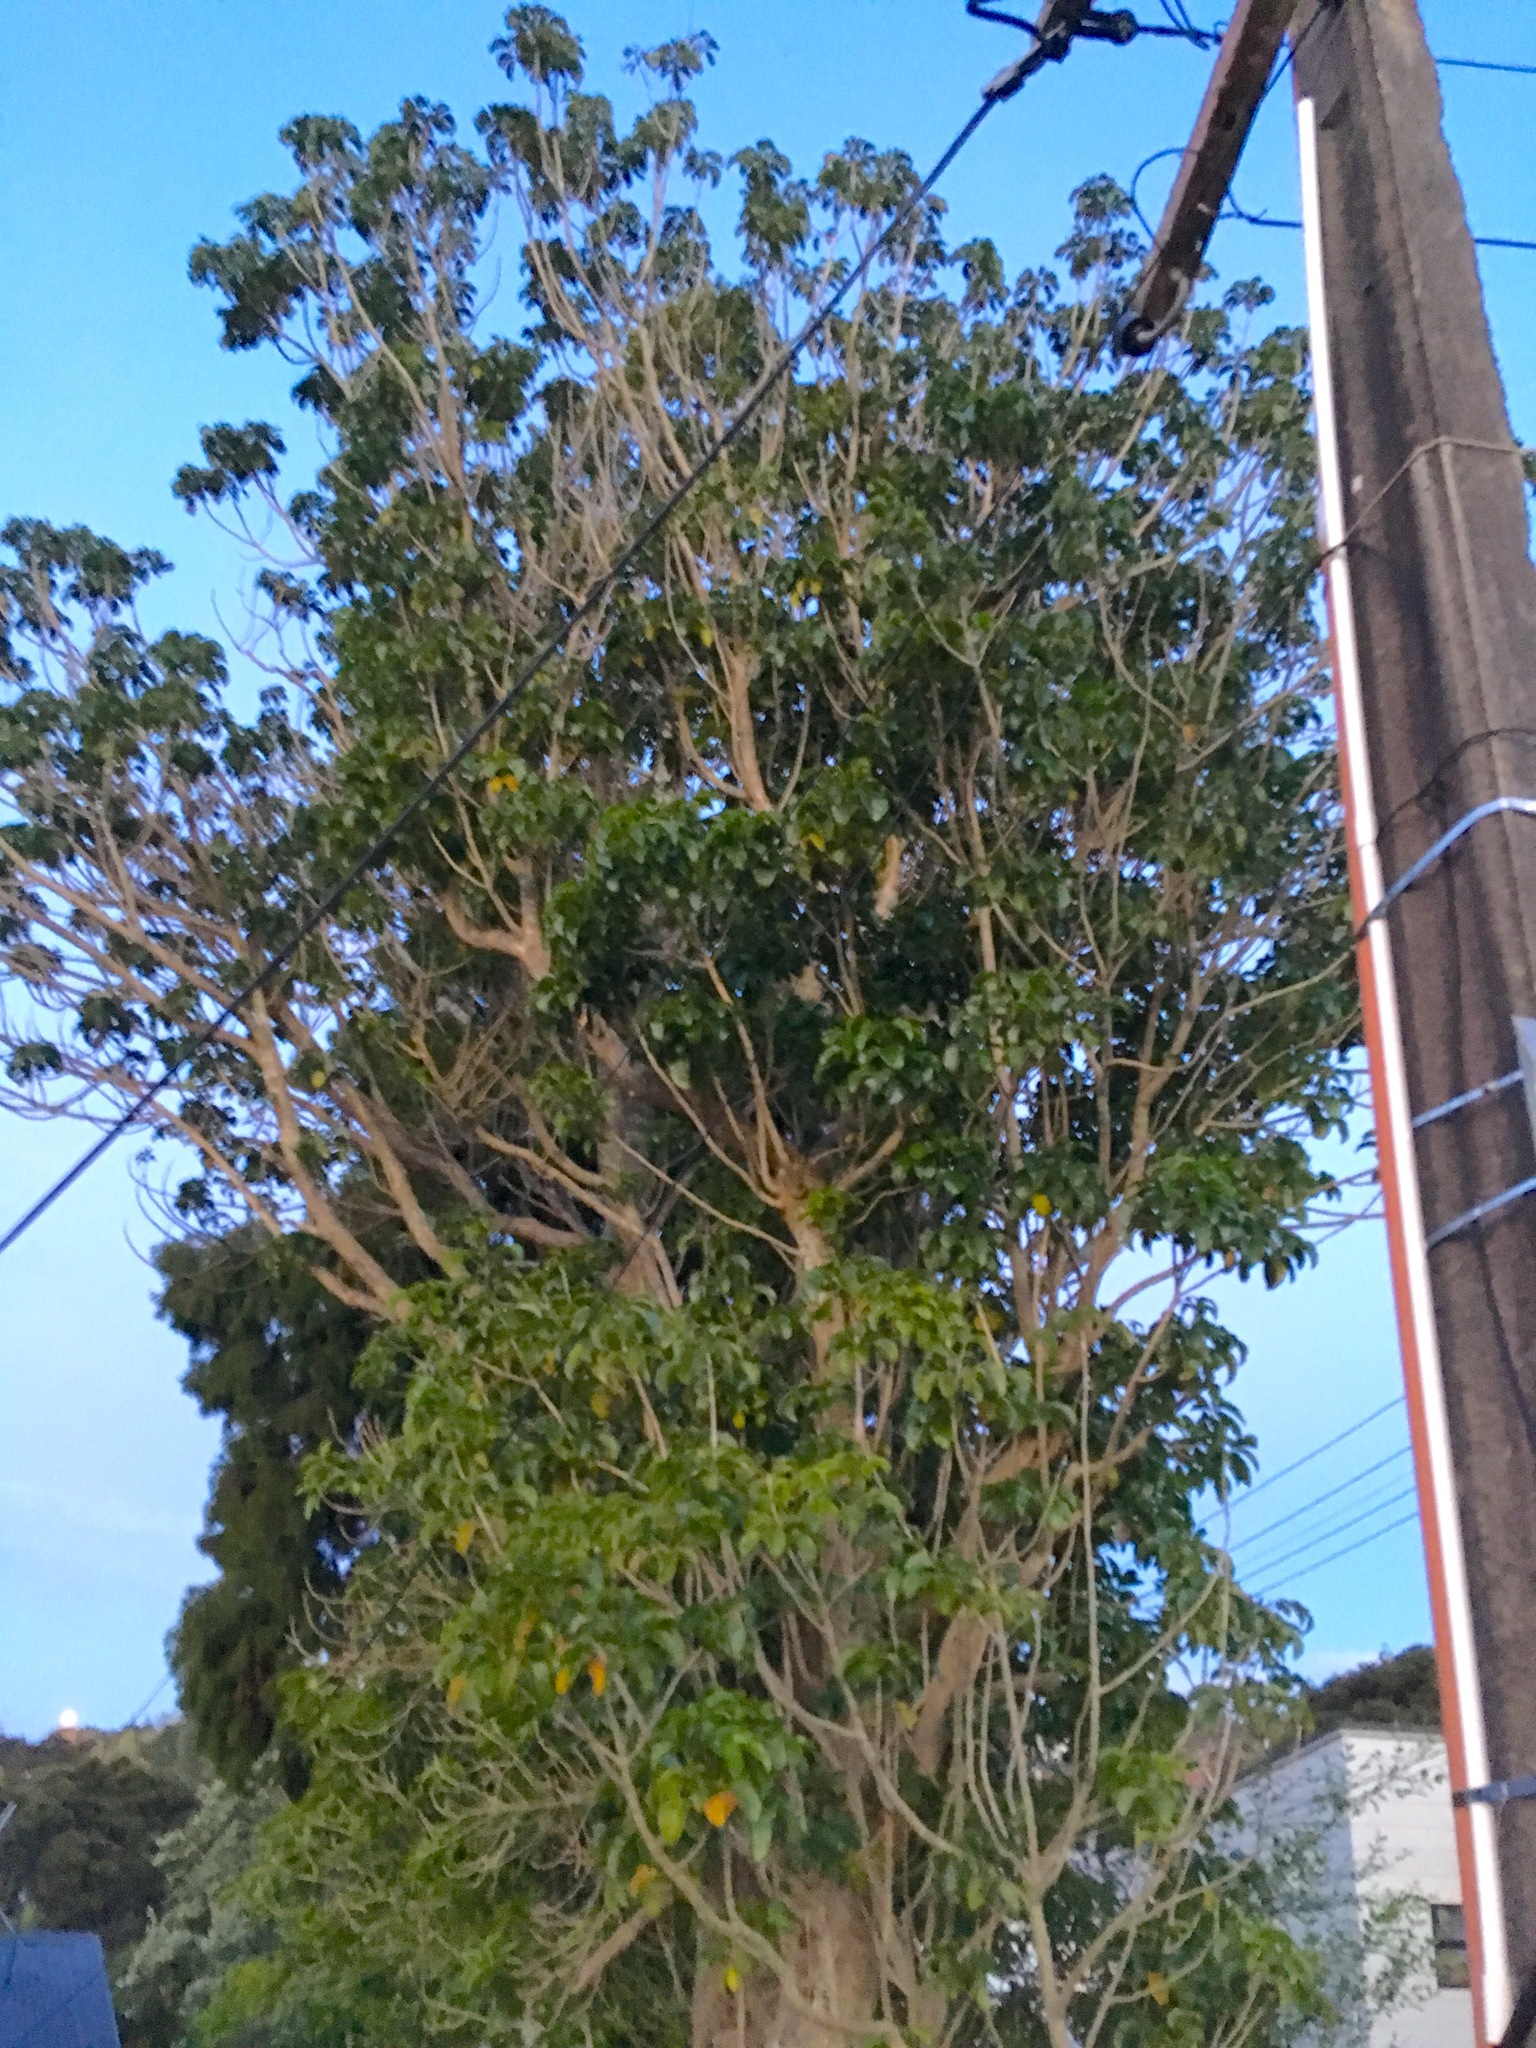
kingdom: Plantae
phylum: Tracheophyta
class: Magnoliopsida
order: Lamiales
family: Lamiaceae
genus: Vitex
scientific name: Vitex lucens
